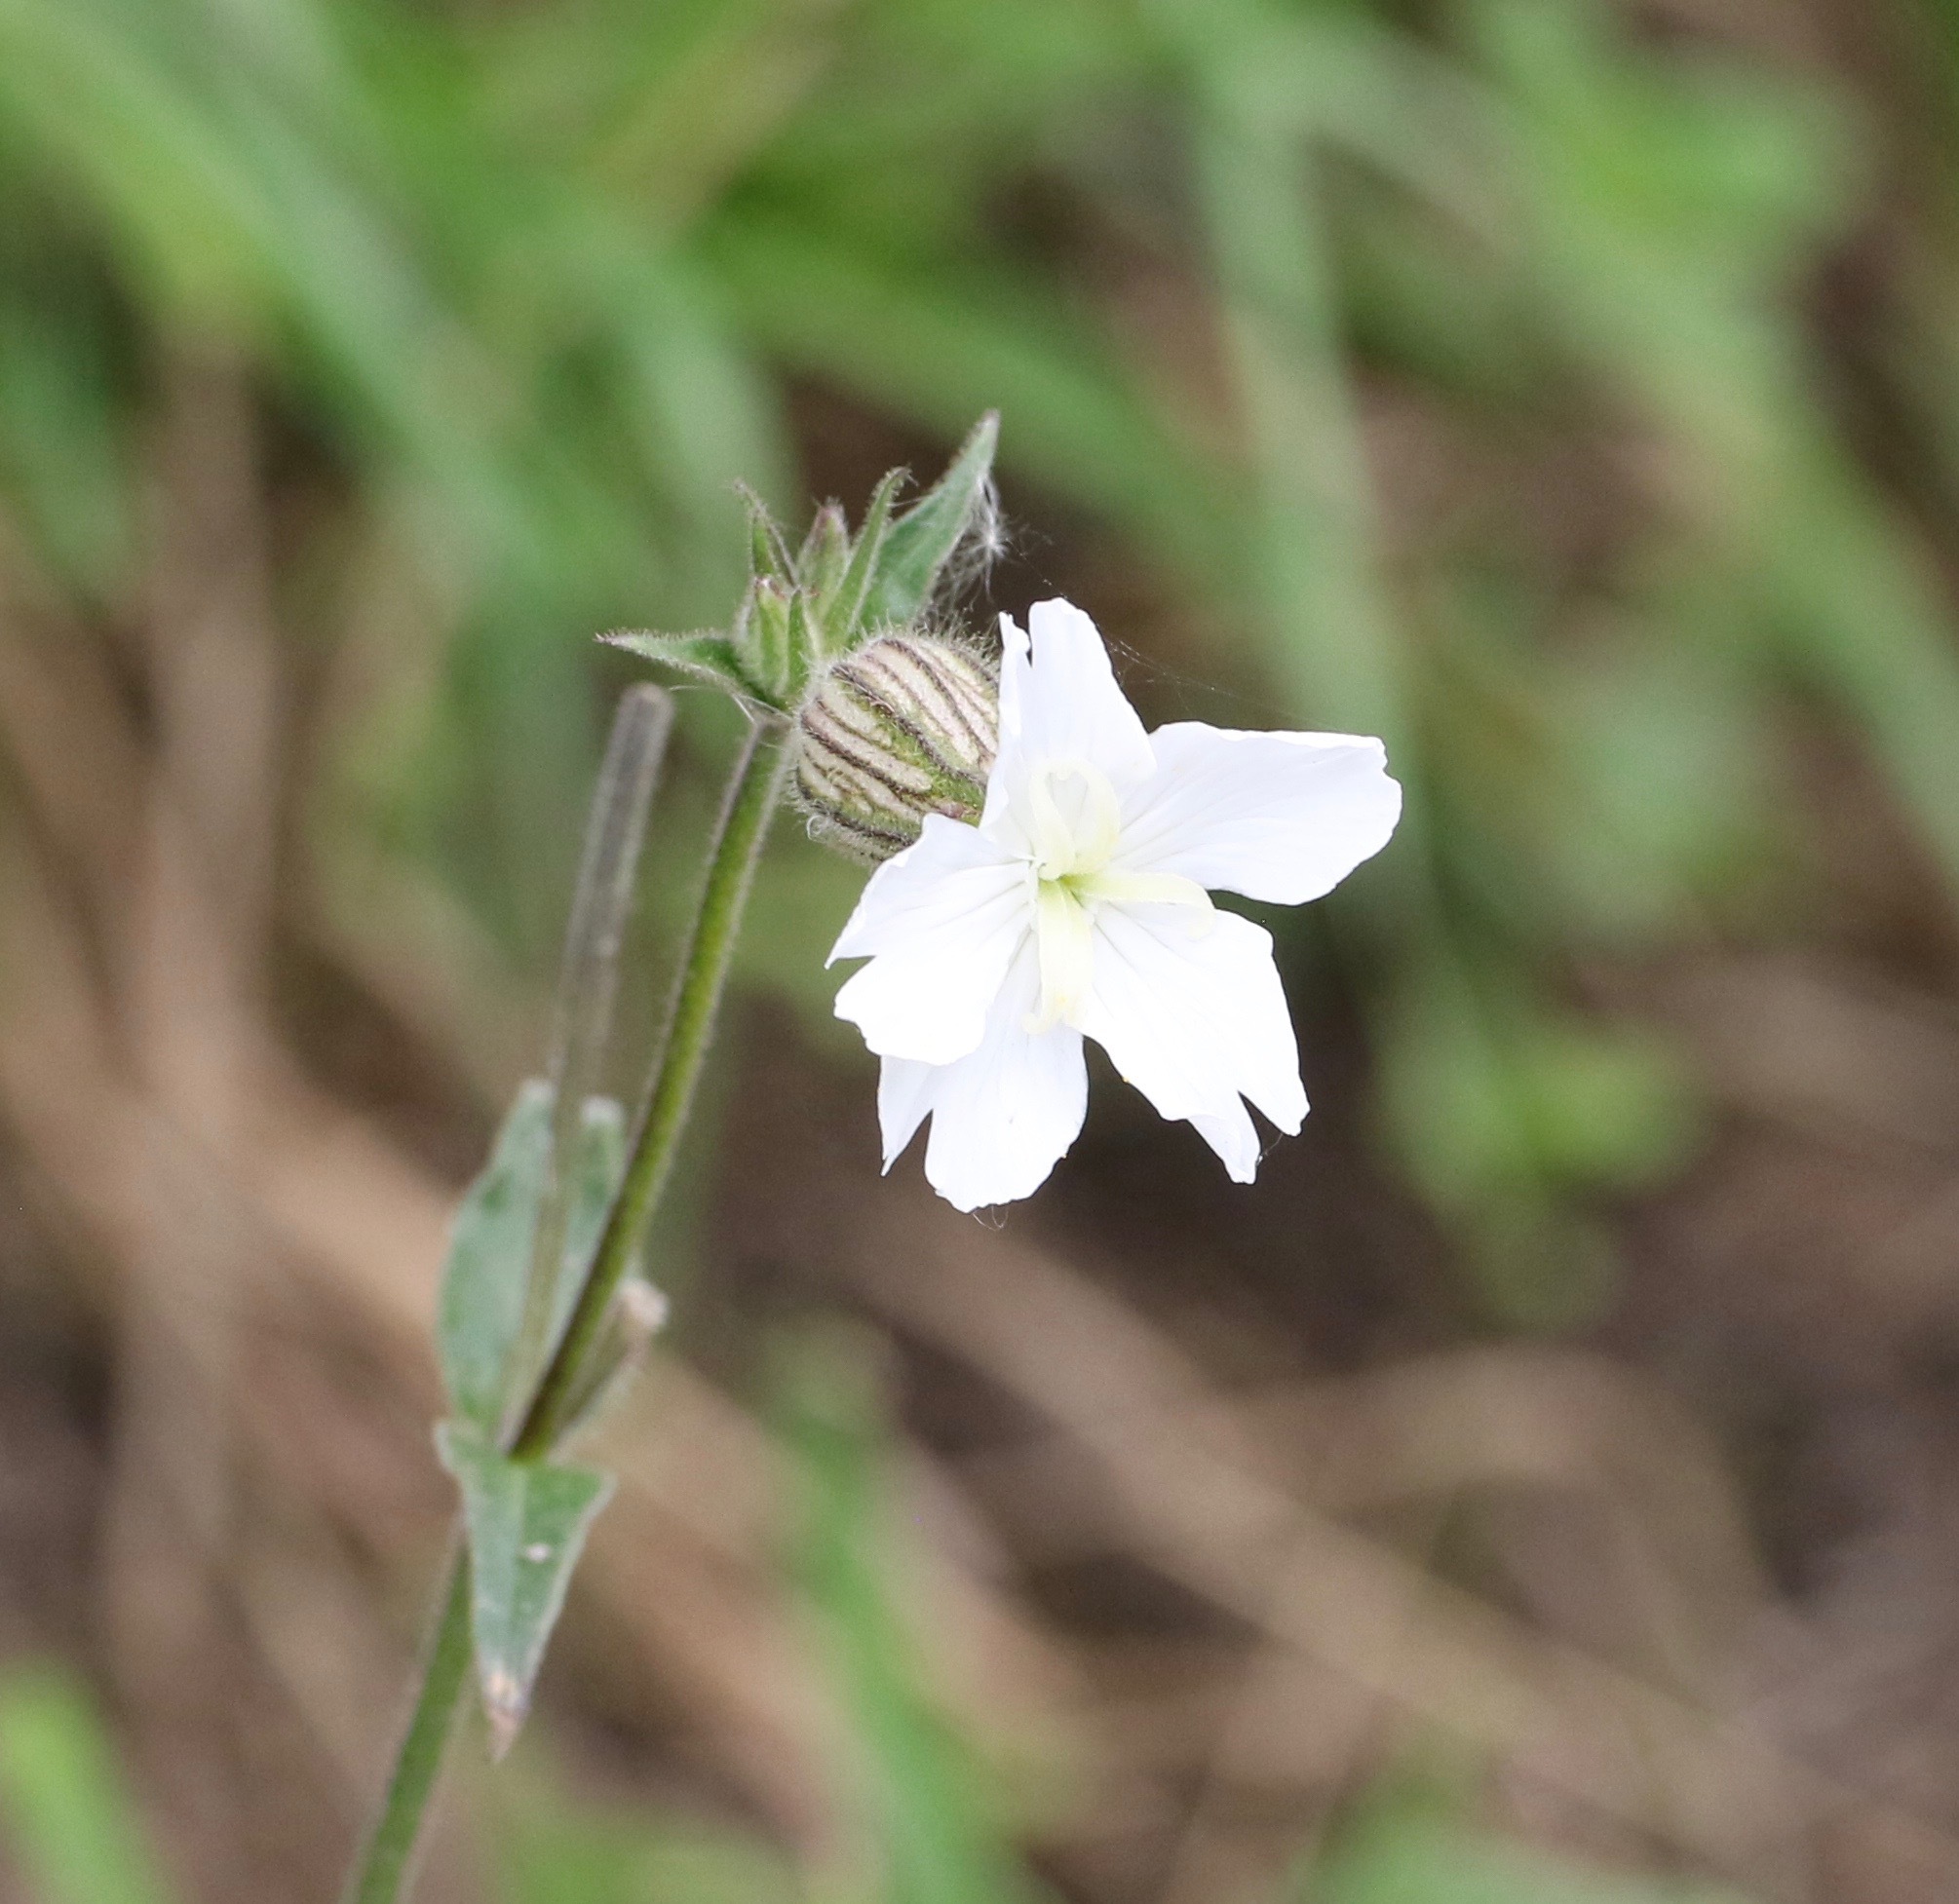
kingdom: Plantae
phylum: Tracheophyta
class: Magnoliopsida
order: Caryophyllales
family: Caryophyllaceae
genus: Silene
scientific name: Silene latifolia
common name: White campion
